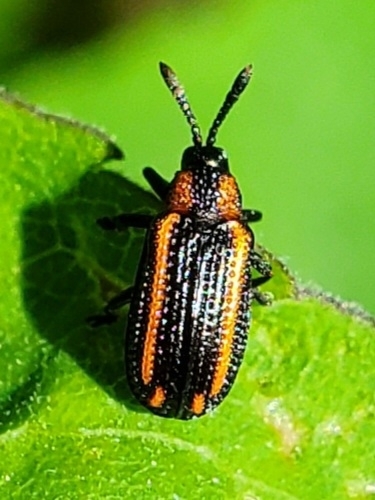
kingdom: Animalia
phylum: Arthropoda
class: Insecta
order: Coleoptera
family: Chrysomelidae
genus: Microrhopala
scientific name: Microrhopala xerene
